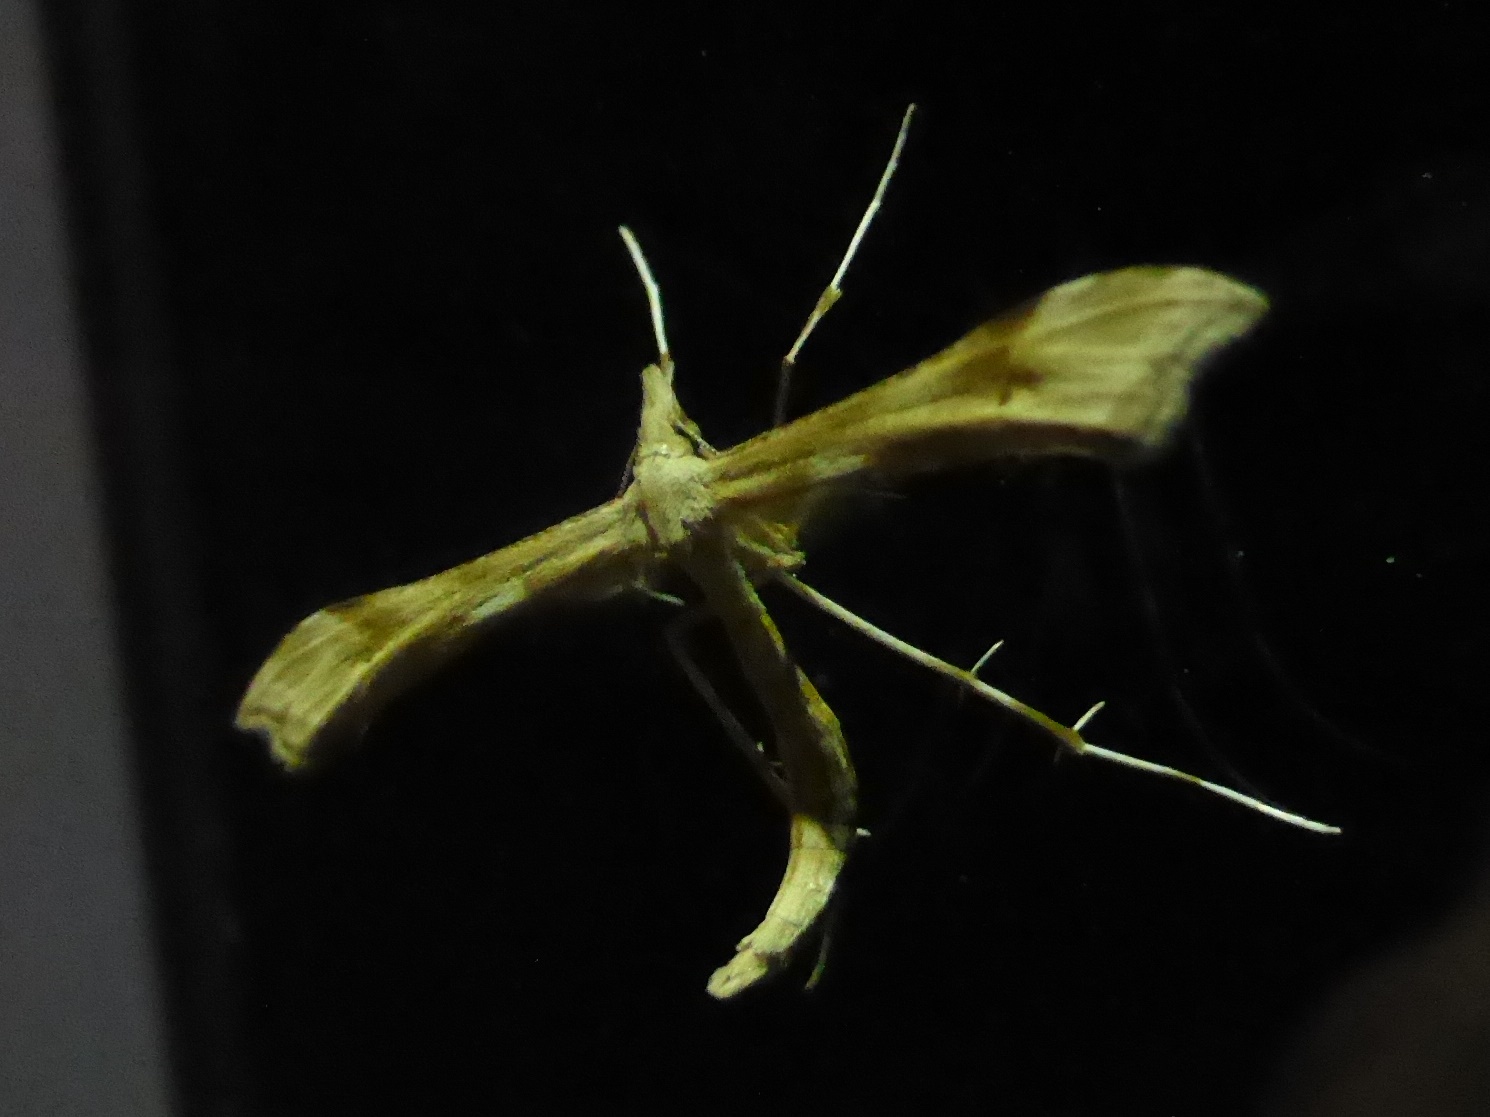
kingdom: Animalia
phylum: Arthropoda
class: Insecta
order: Lepidoptera
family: Pterophoridae
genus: Gillmeria
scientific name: Gillmeria ochrodactyla
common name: Tansy plume
